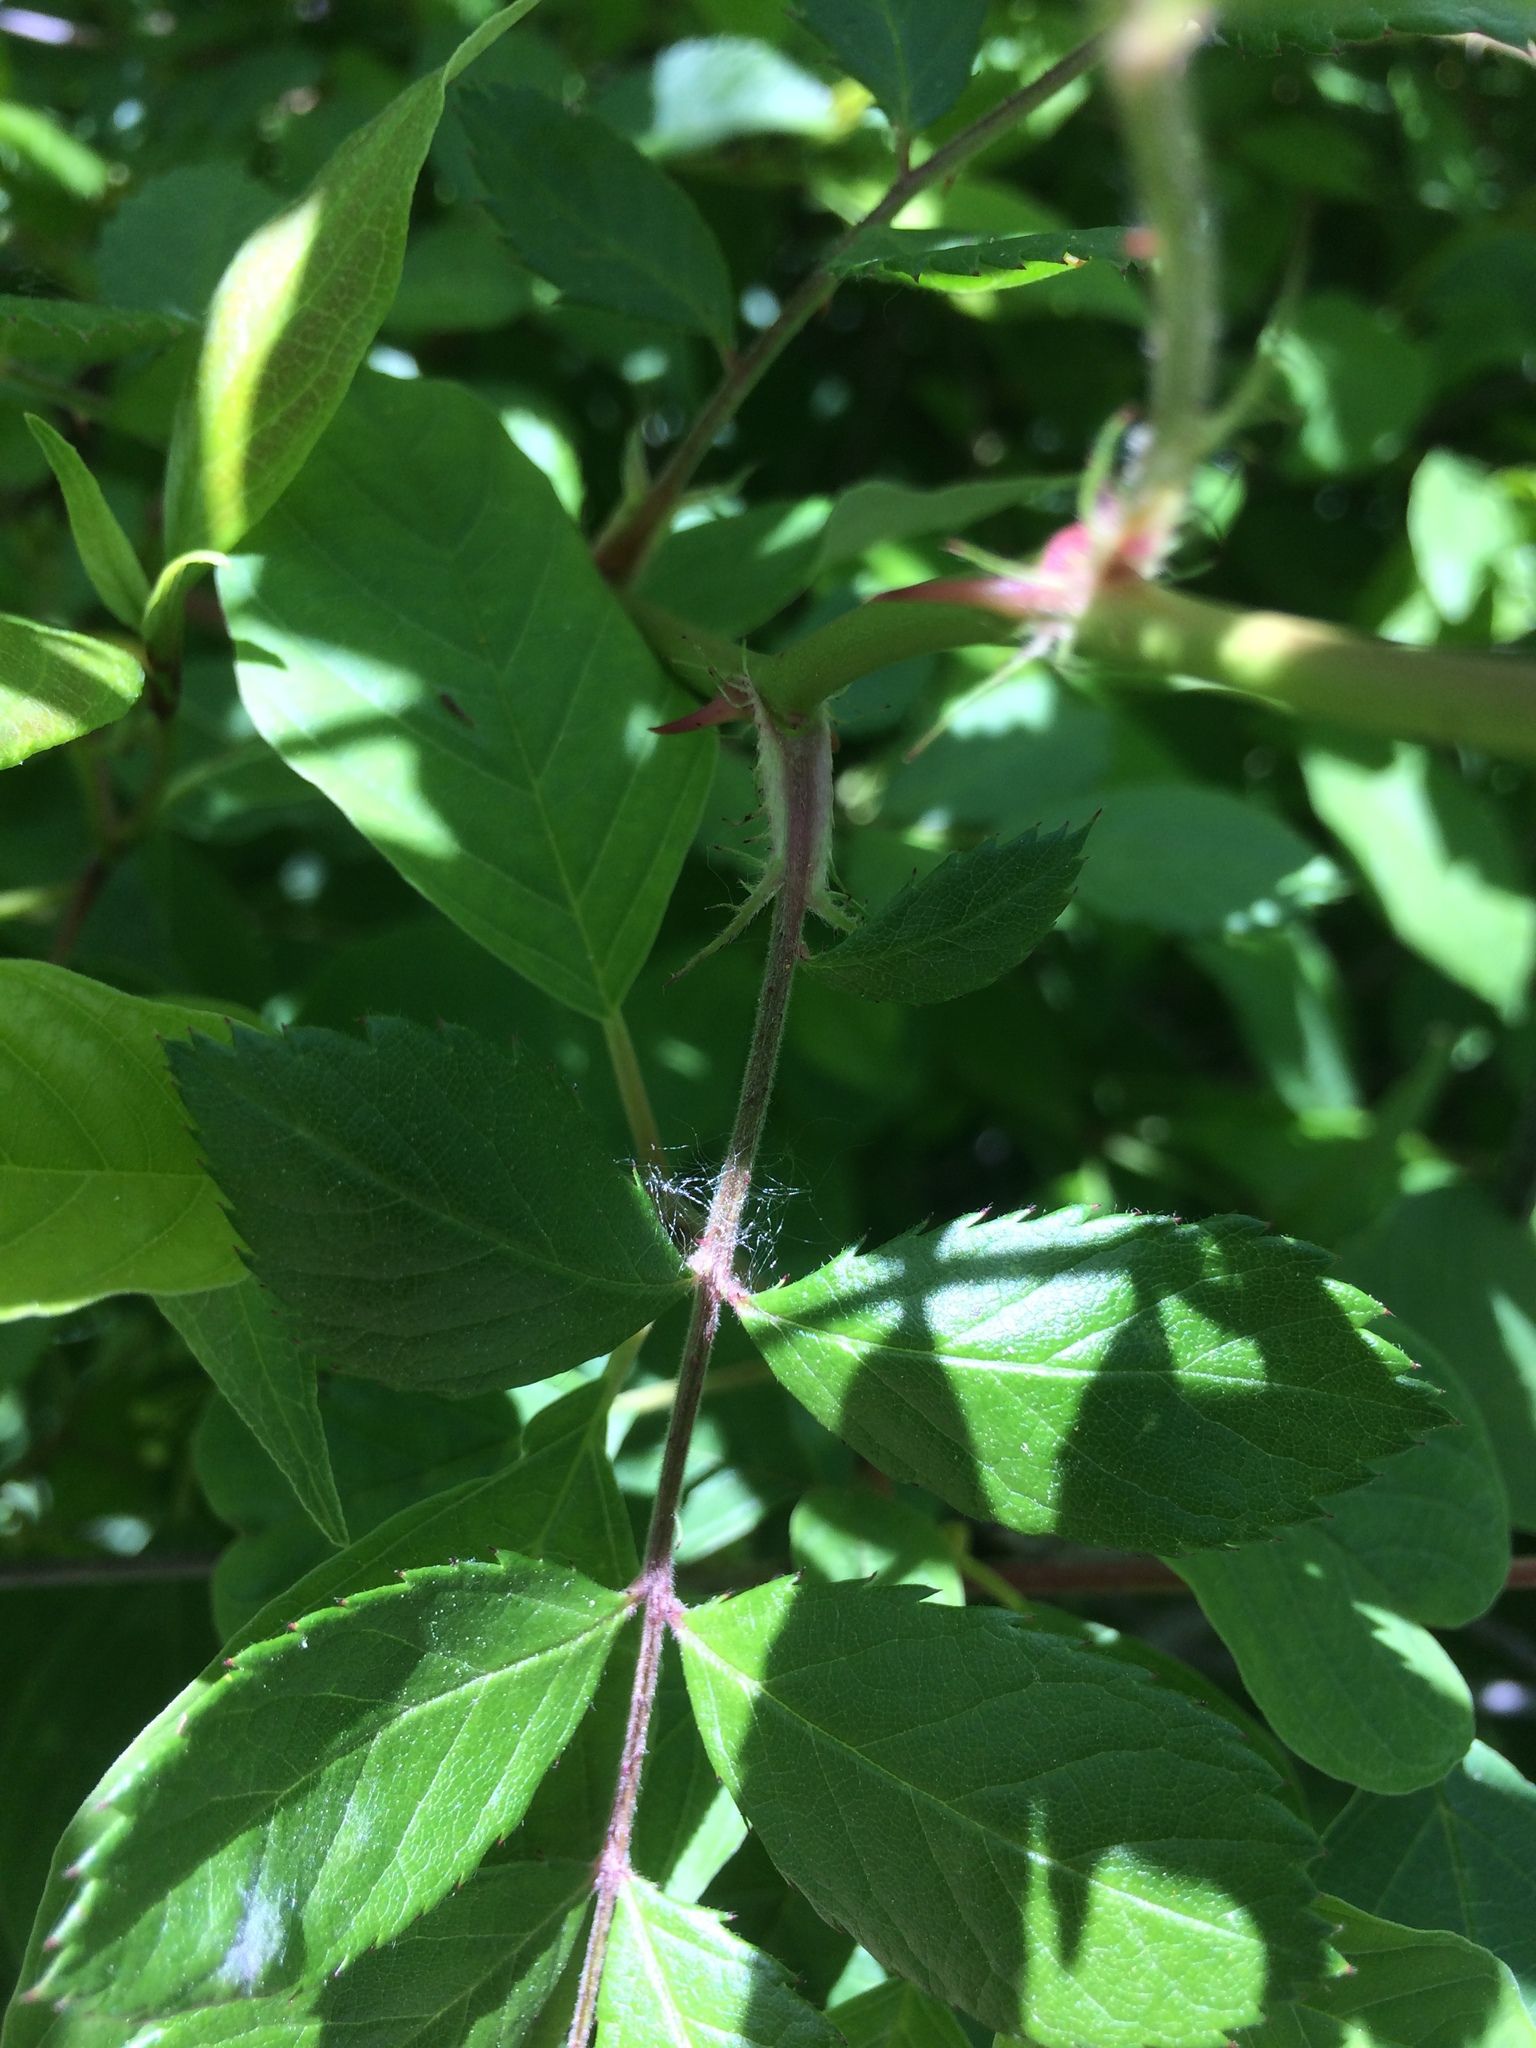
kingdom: Plantae
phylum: Tracheophyta
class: Magnoliopsida
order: Rosales
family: Rosaceae
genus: Rosa
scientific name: Rosa multiflora
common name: Multiflora rose
